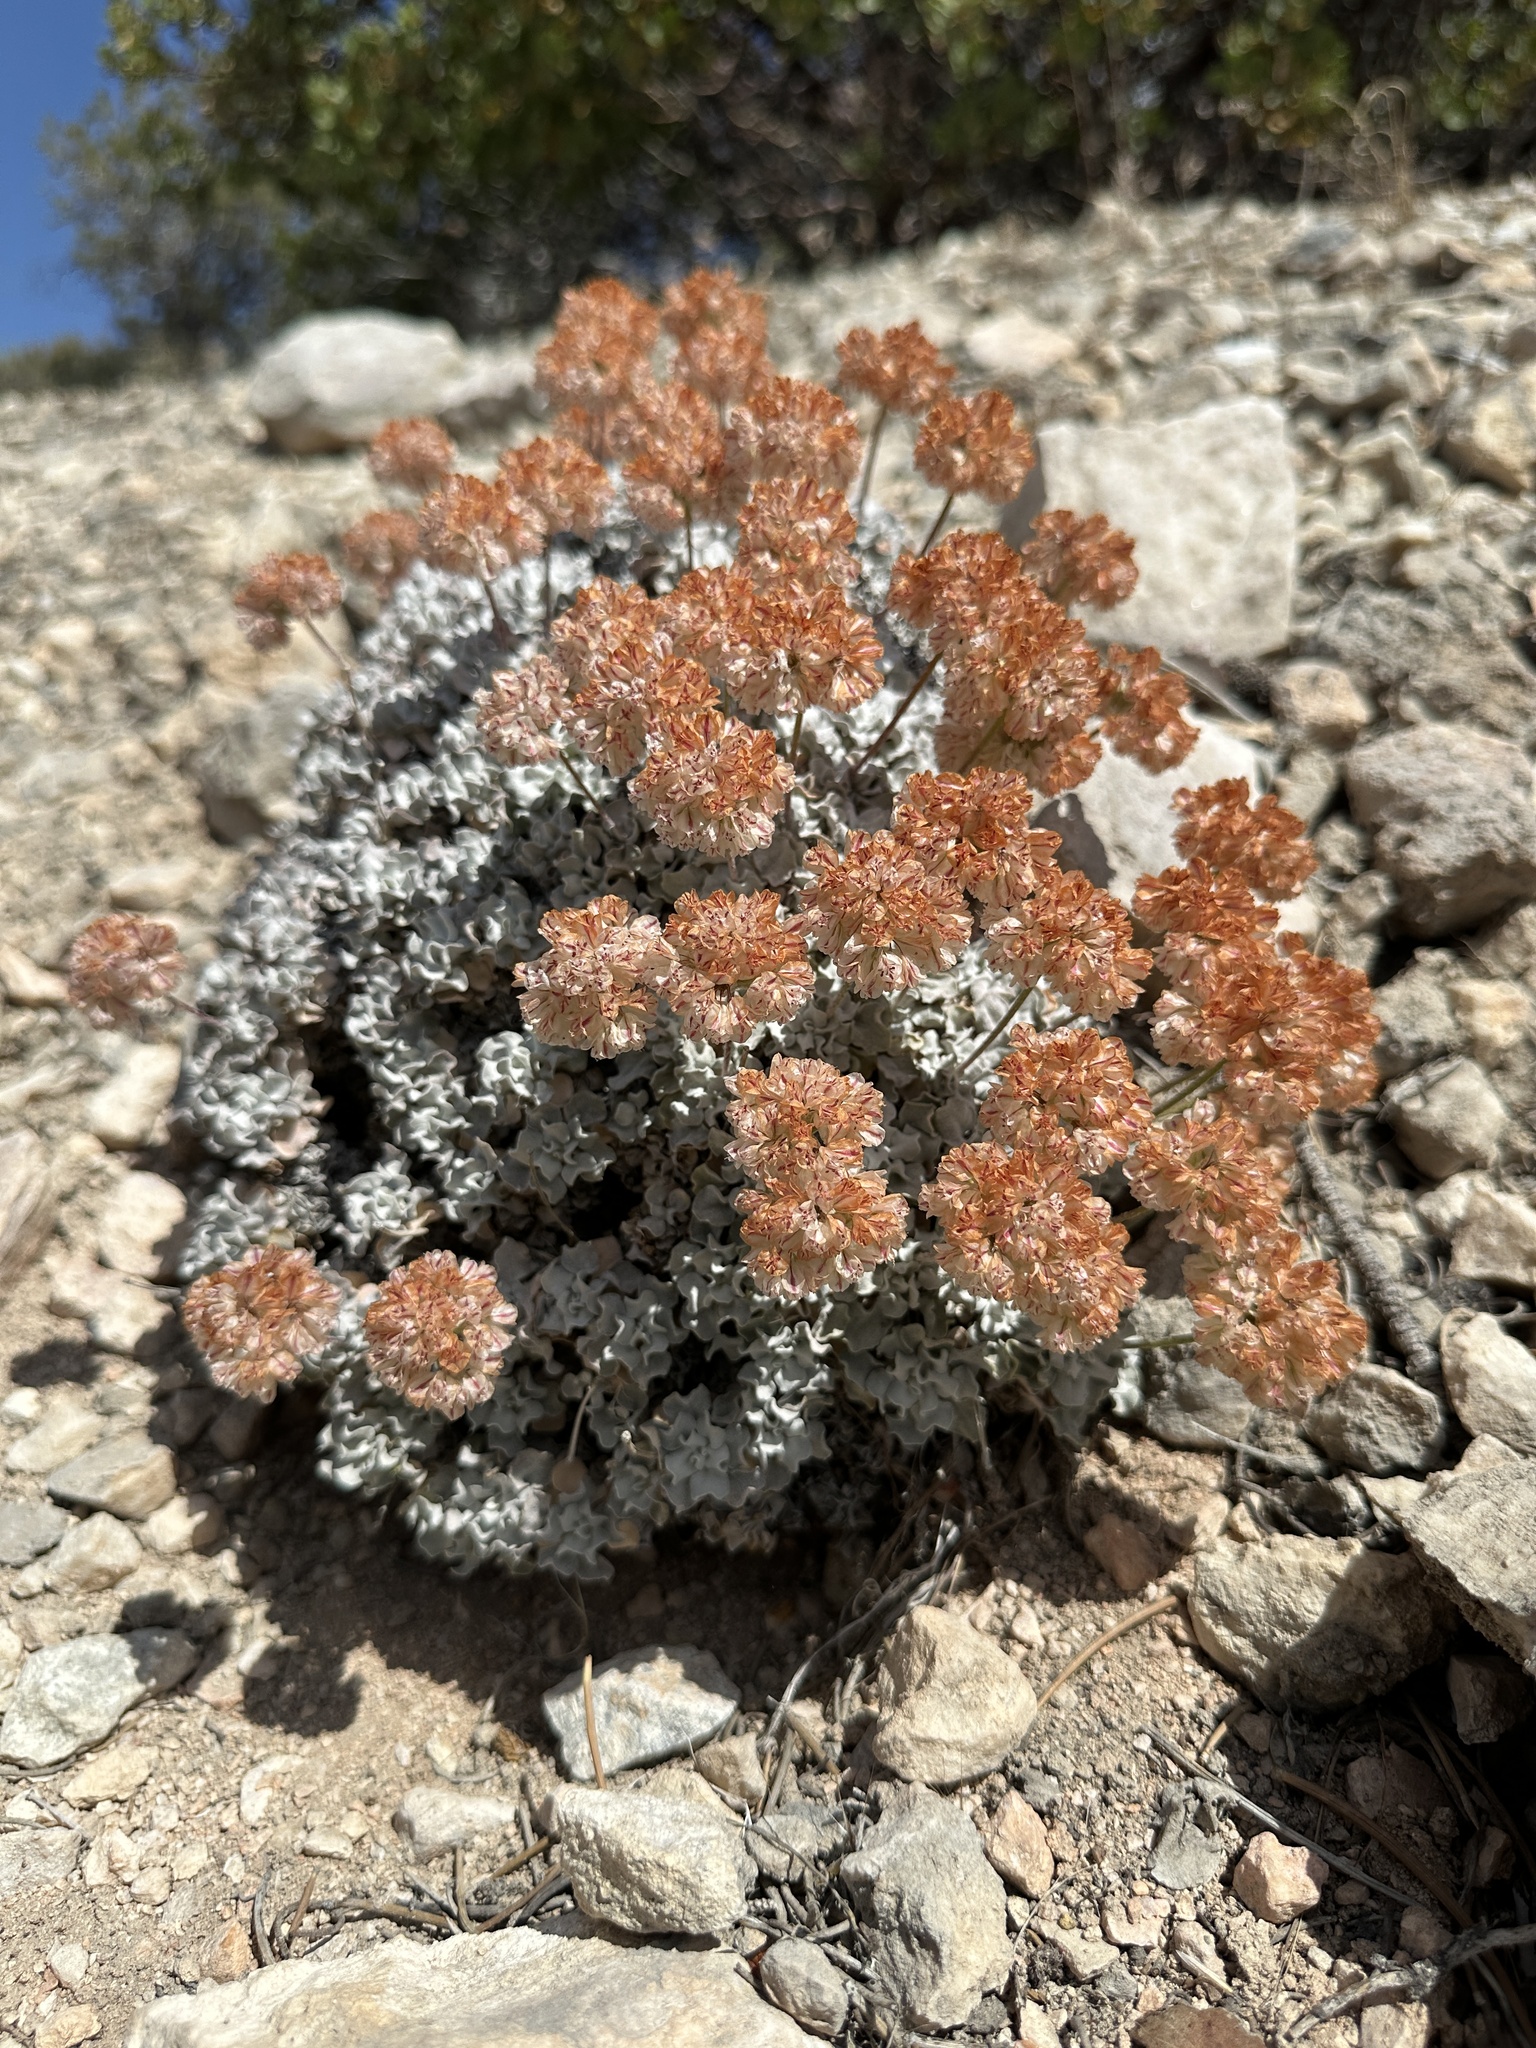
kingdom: Plantae
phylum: Tracheophyta
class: Magnoliopsida
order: Caryophyllales
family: Polygonaceae
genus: Eriogonum
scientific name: Eriogonum ovalifolium
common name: Cushion buckwheat
